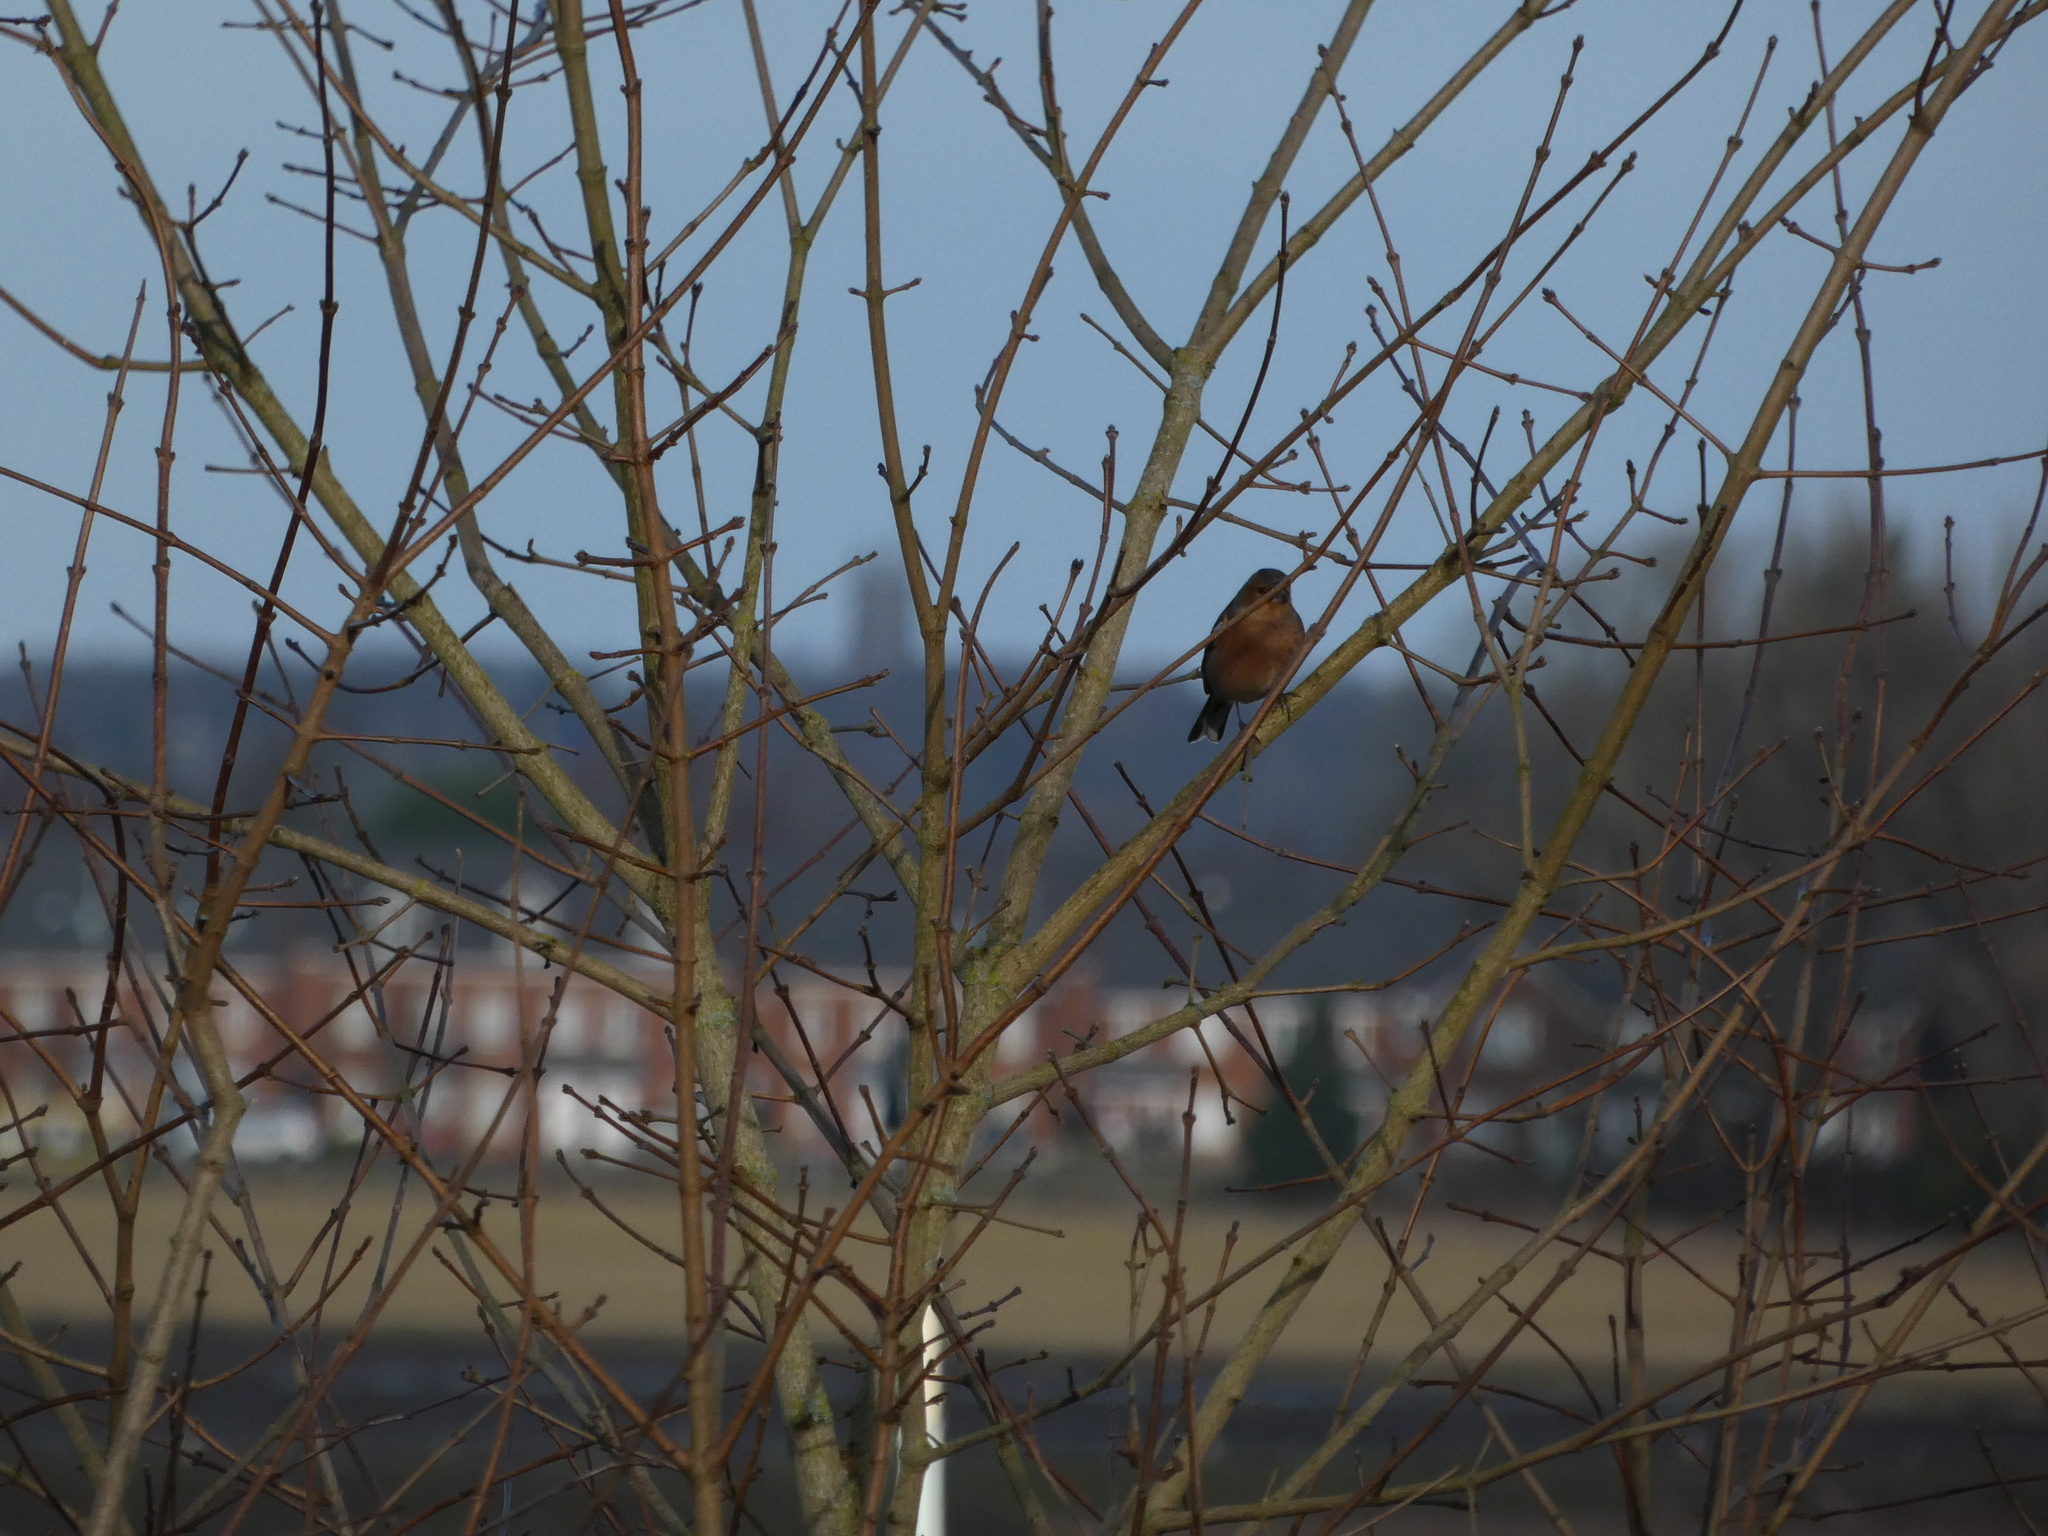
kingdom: Animalia
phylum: Chordata
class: Aves
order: Passeriformes
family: Fringillidae
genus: Fringilla
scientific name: Fringilla coelebs
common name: Common chaffinch
